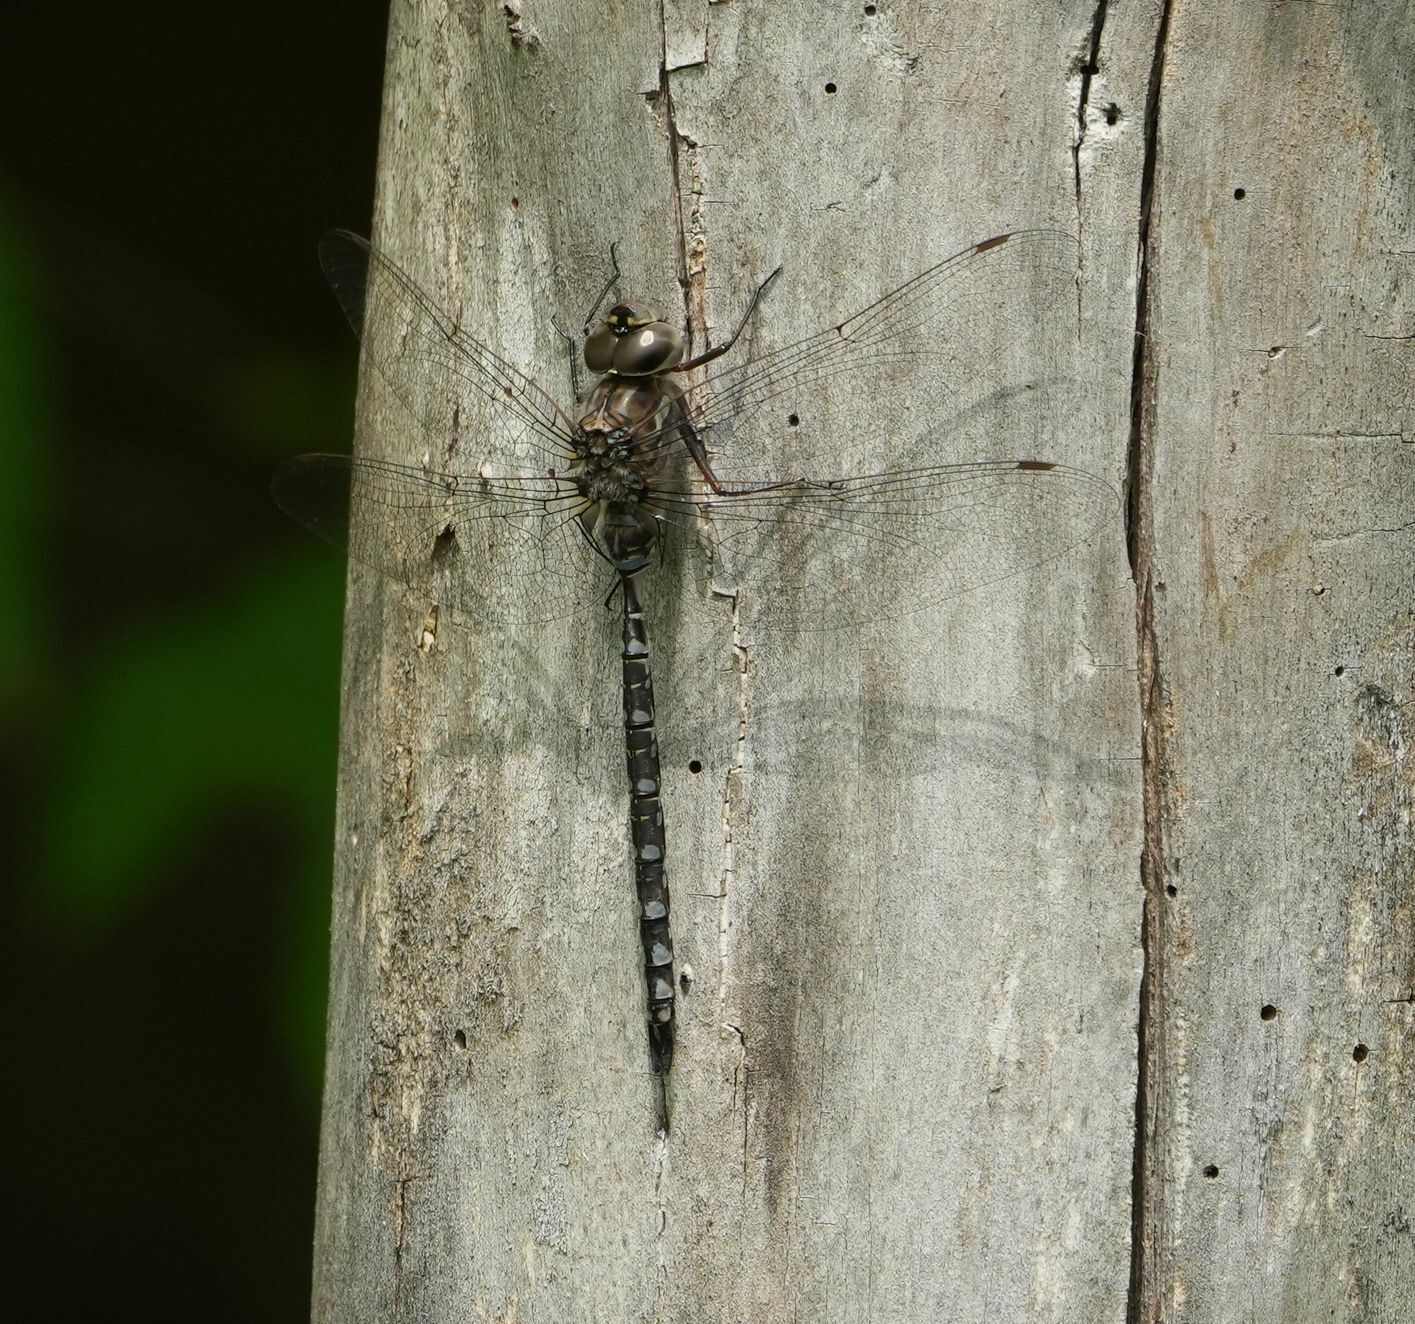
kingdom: Animalia
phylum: Arthropoda
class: Insecta
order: Odonata
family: Aeshnidae
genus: Aeshna
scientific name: Aeshna canadensis
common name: Canada darner
